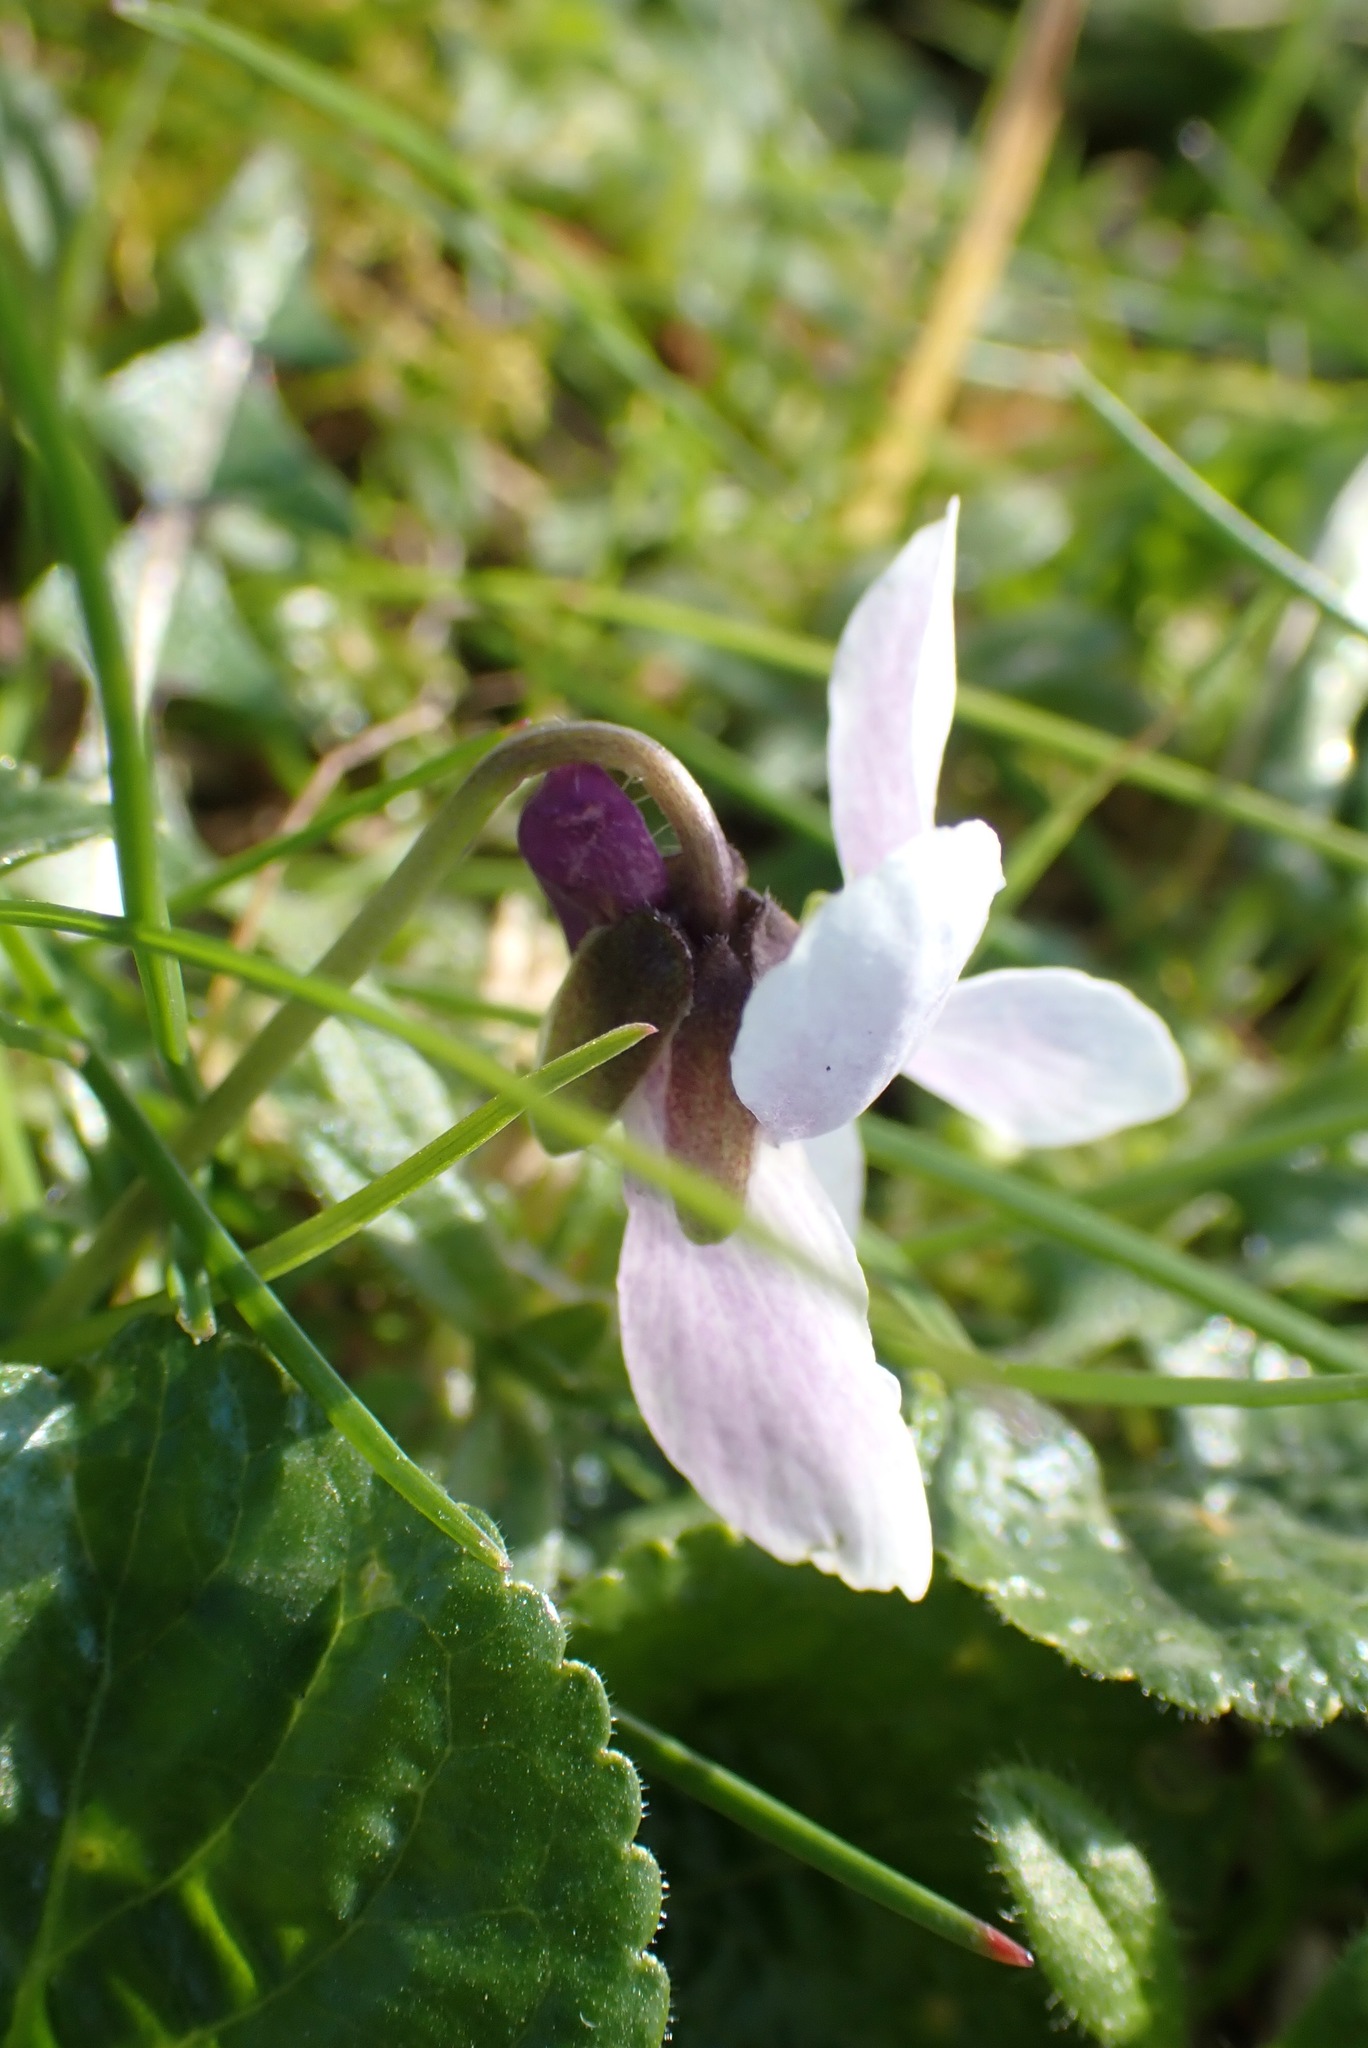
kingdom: Plantae
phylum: Tracheophyta
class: Magnoliopsida
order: Malpighiales
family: Violaceae
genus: Viola
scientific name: Viola odorata
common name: Sweet violet
